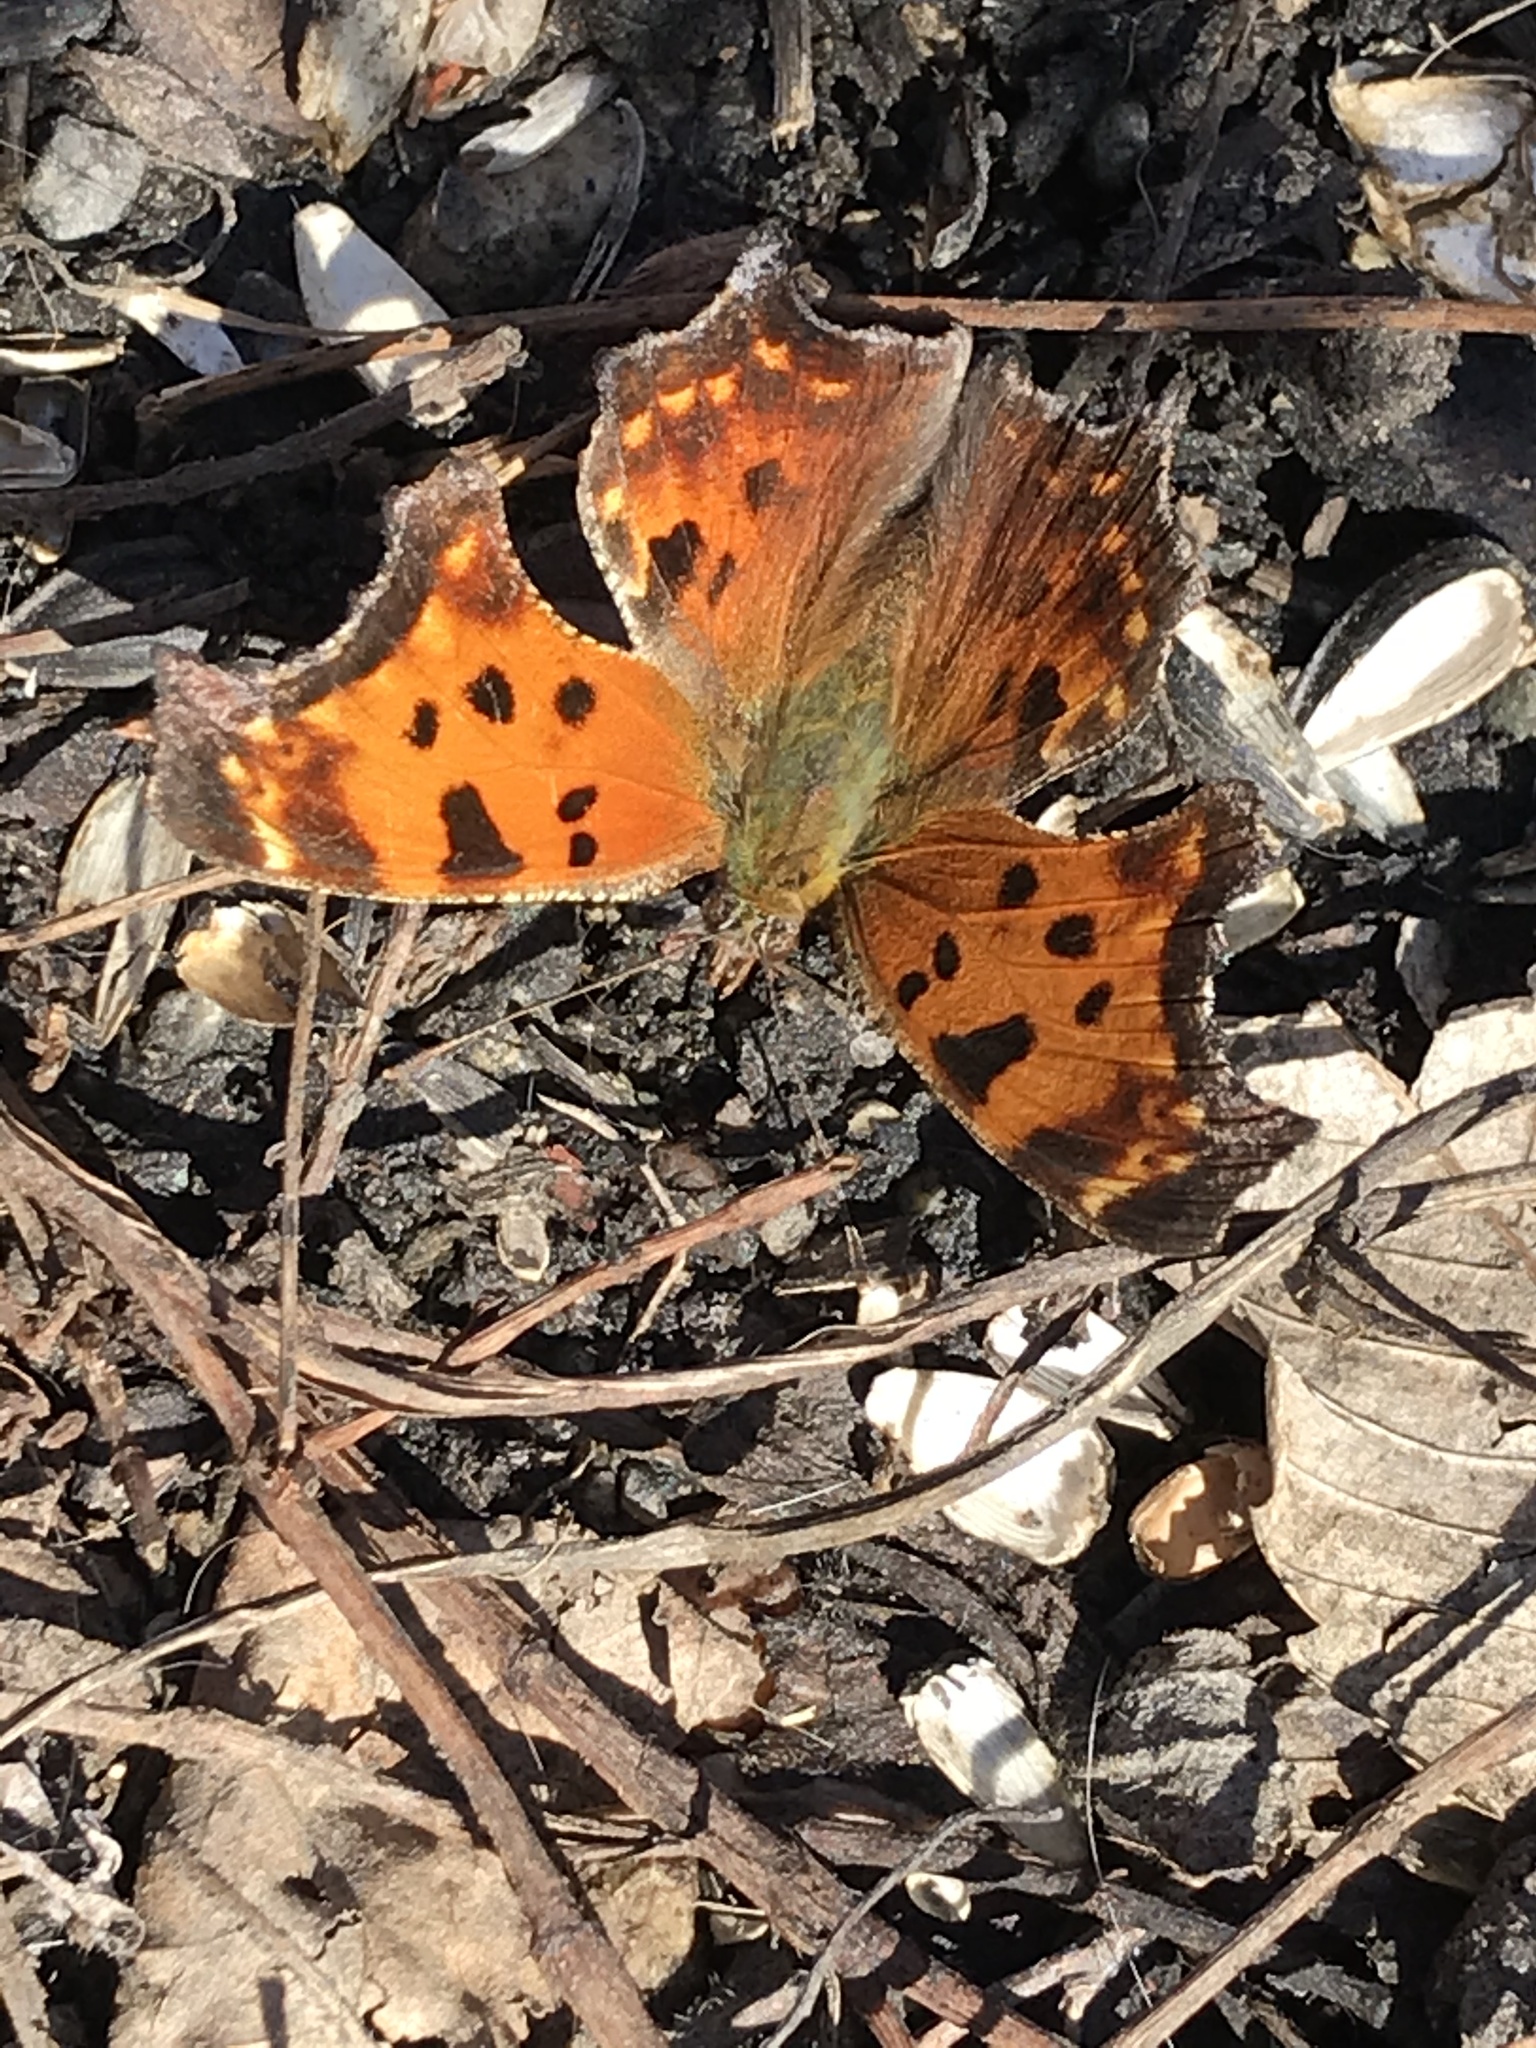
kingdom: Animalia
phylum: Arthropoda
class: Insecta
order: Lepidoptera
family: Nymphalidae
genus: Polygonia
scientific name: Polygonia comma
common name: Eastern comma
